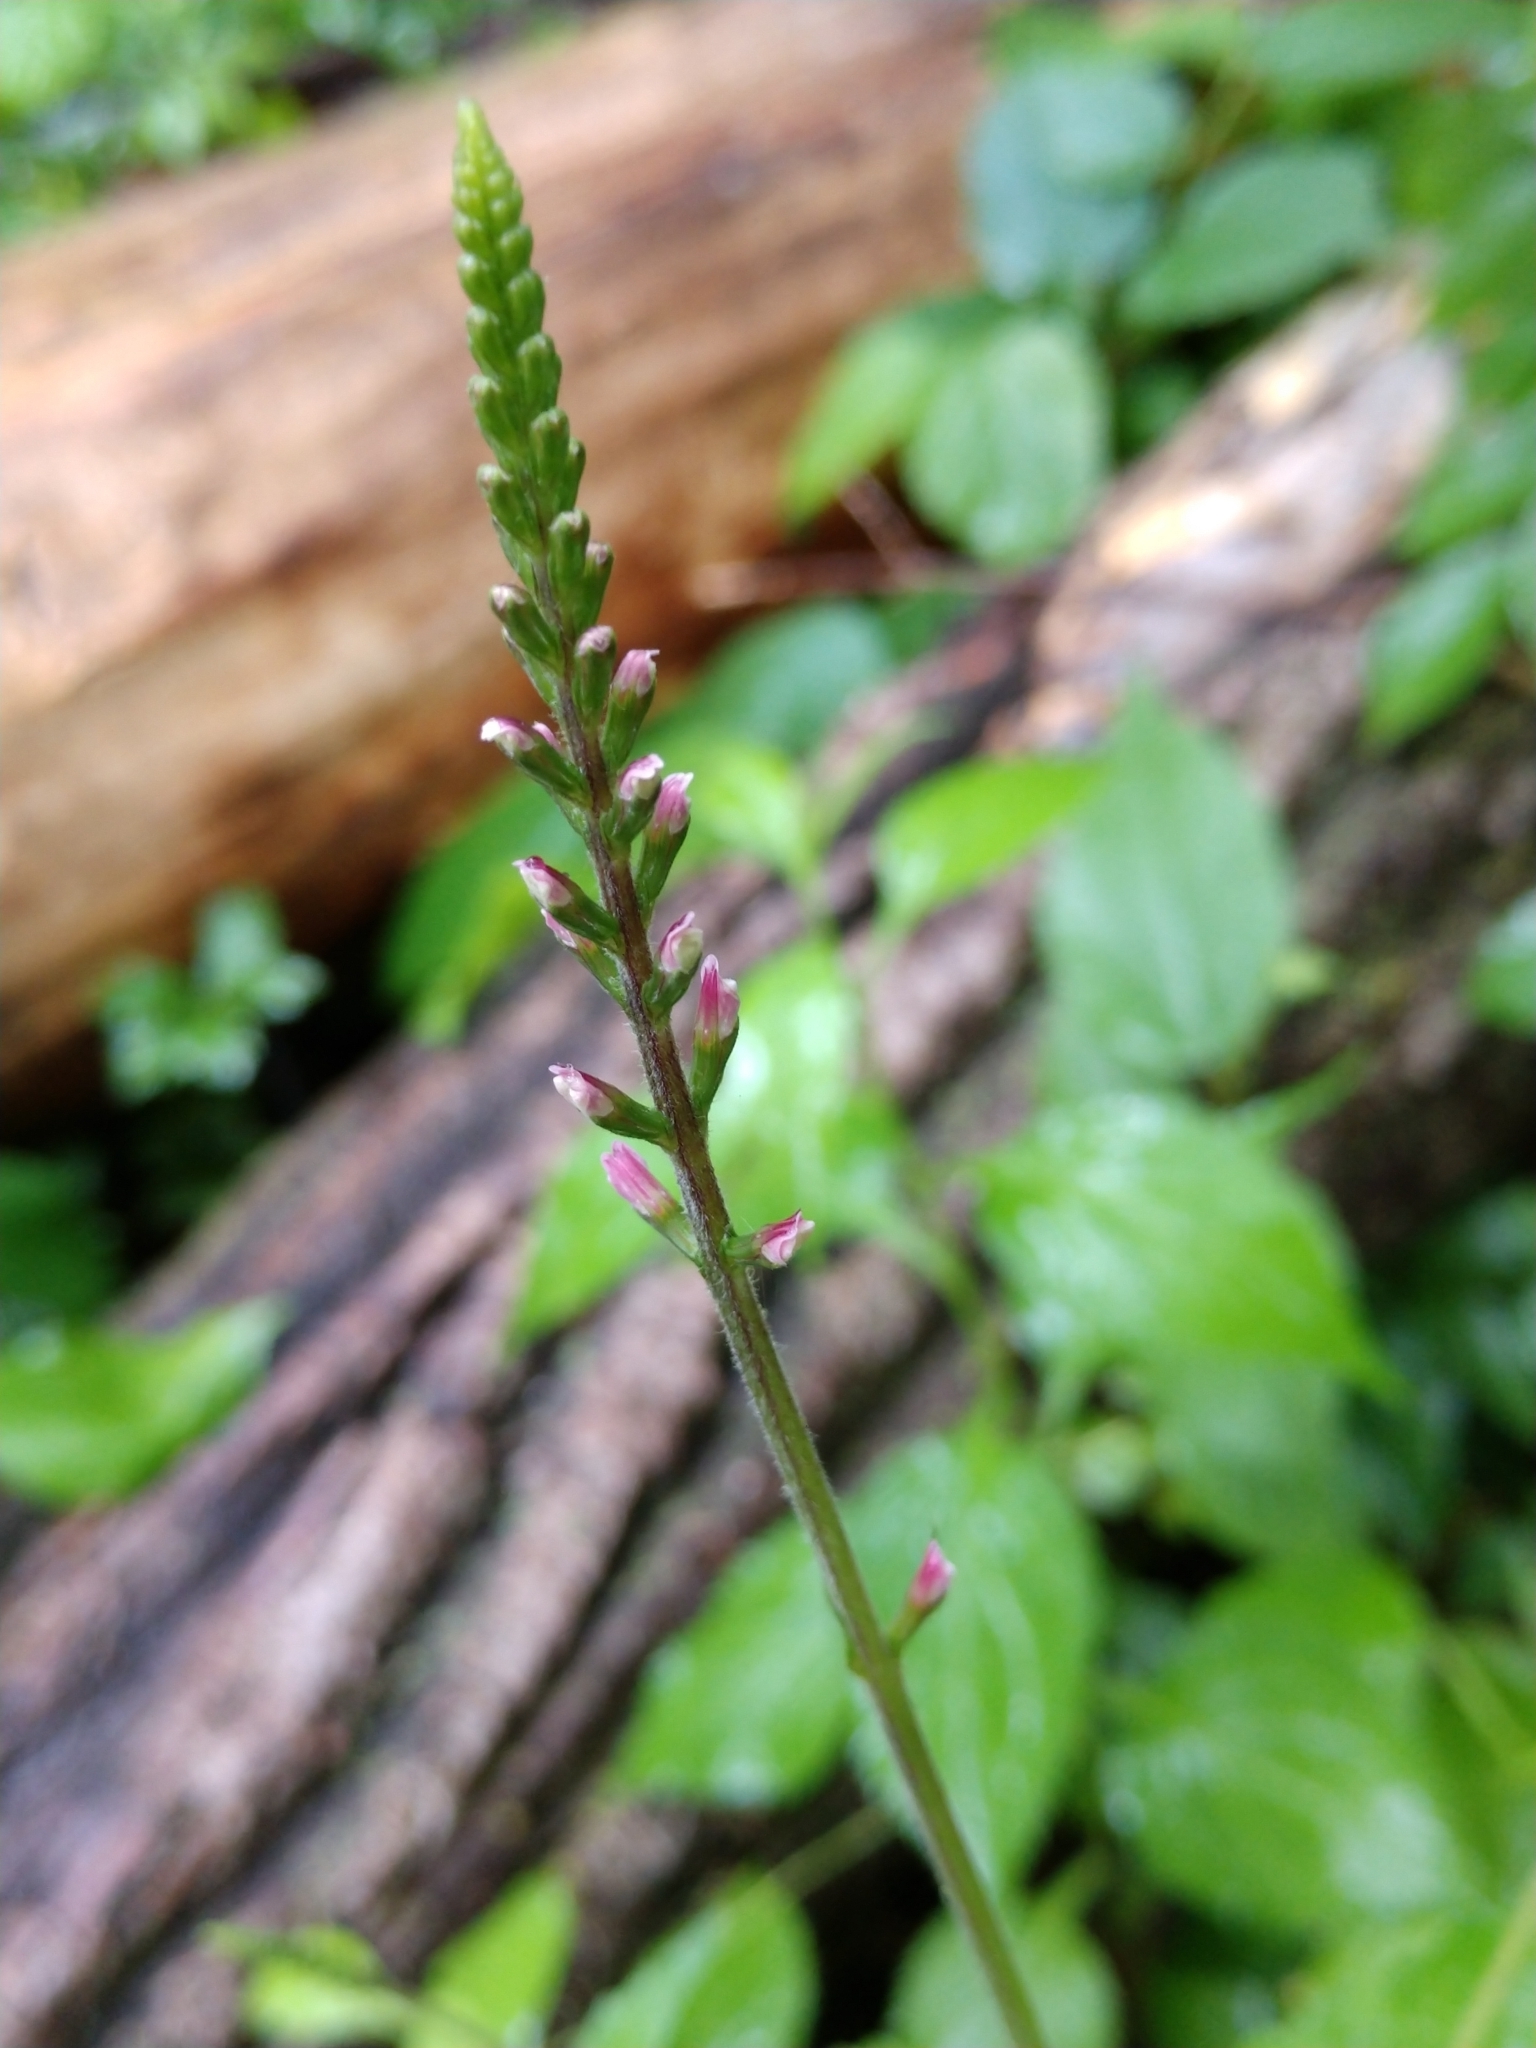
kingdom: Plantae
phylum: Tracheophyta
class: Magnoliopsida
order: Lamiales
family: Phrymaceae
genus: Phryma
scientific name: Phryma leptostachya
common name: American lopseed
